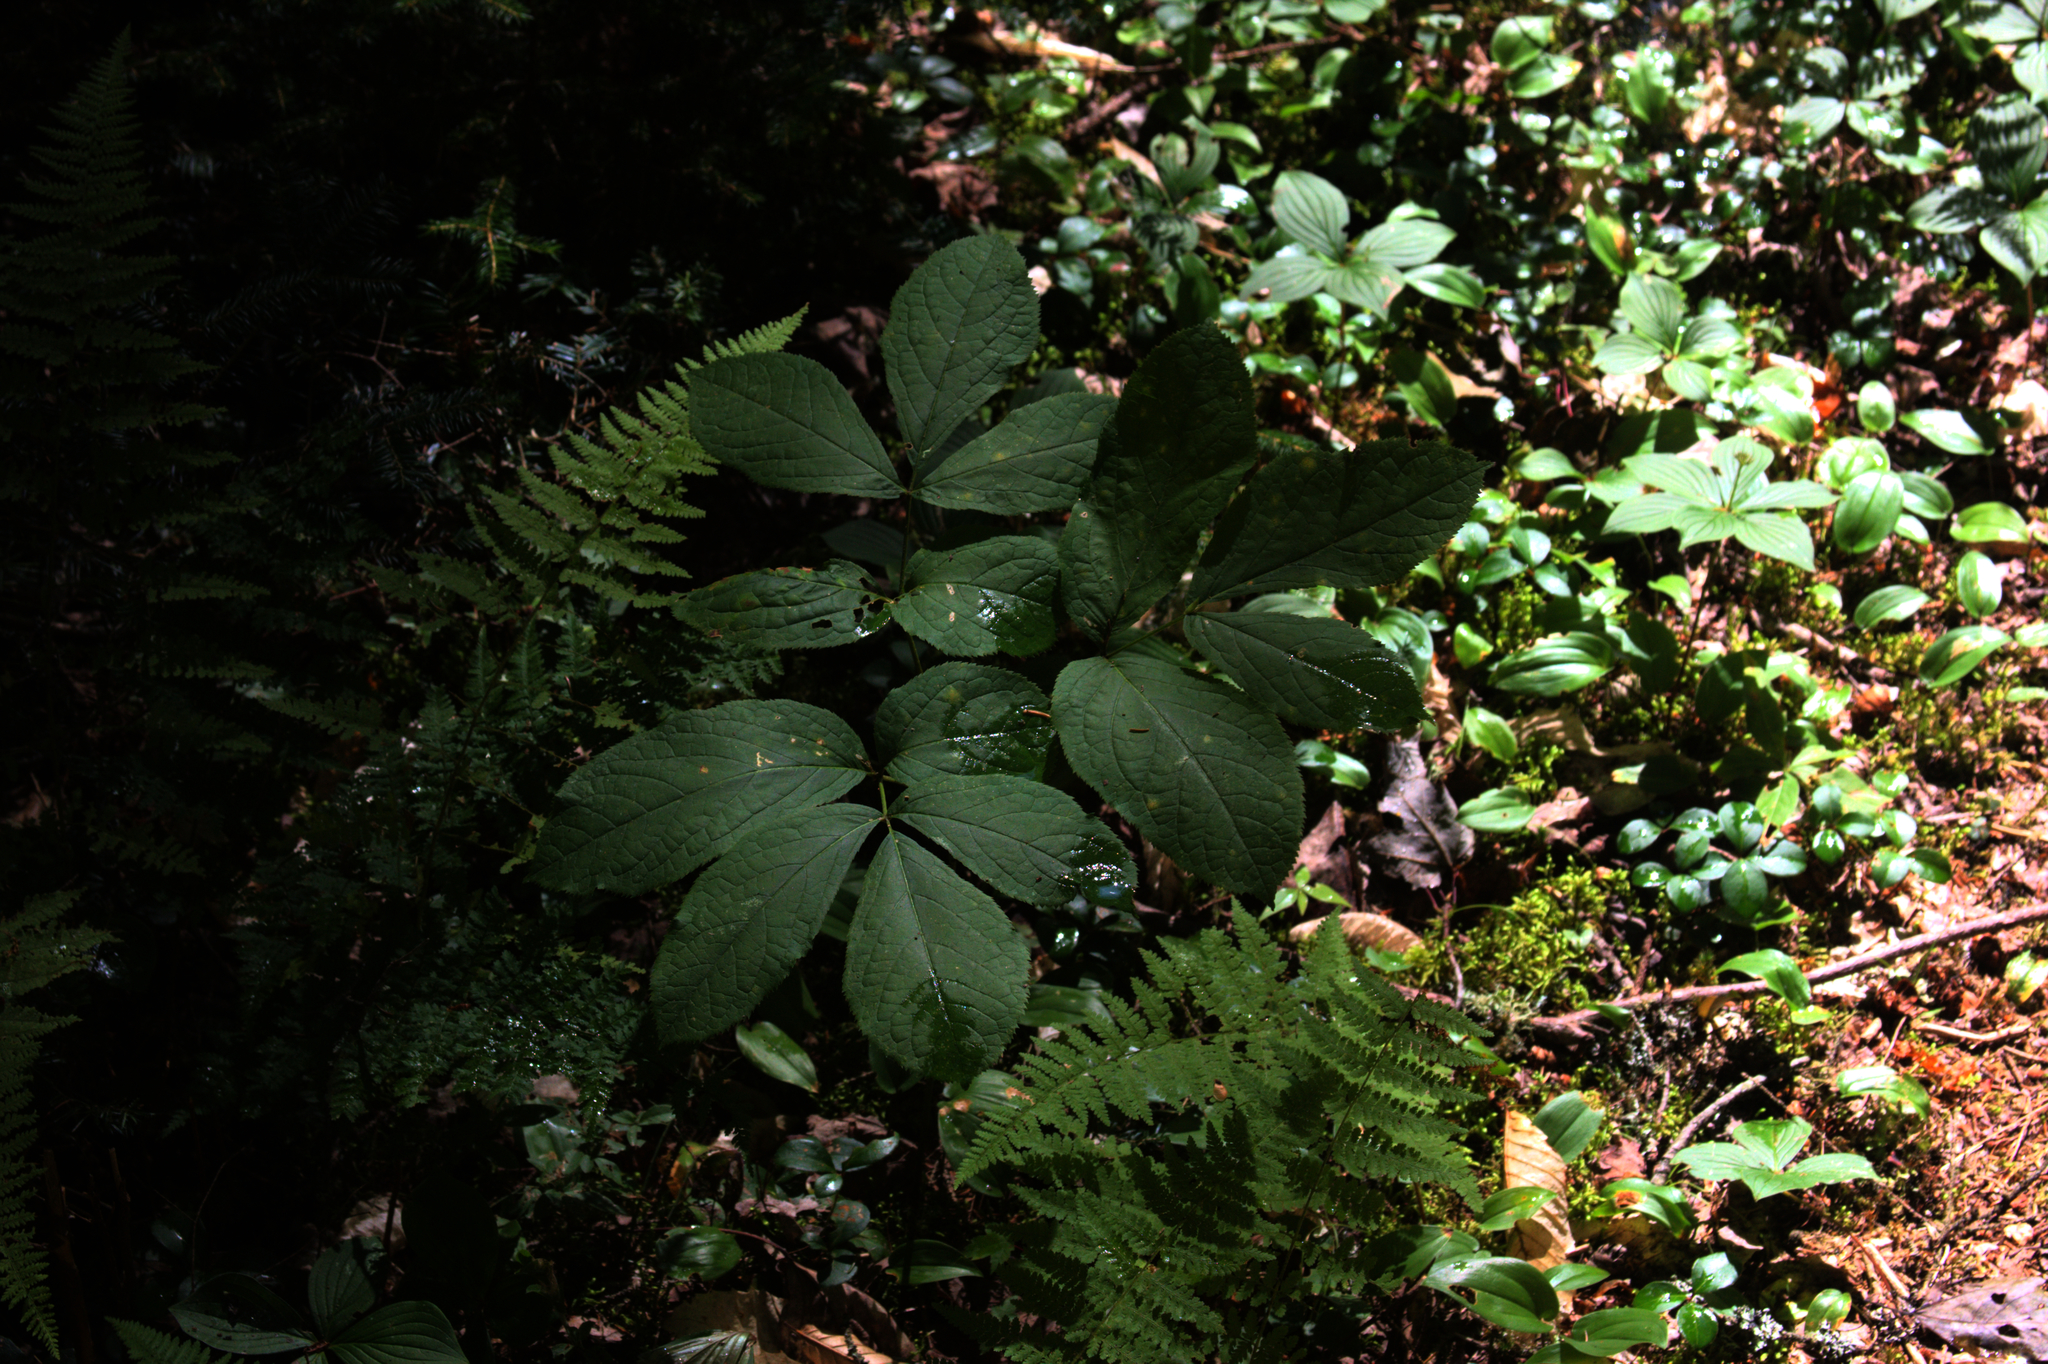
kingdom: Plantae
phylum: Tracheophyta
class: Magnoliopsida
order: Apiales
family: Araliaceae
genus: Aralia
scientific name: Aralia nudicaulis
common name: Wild sarsaparilla
